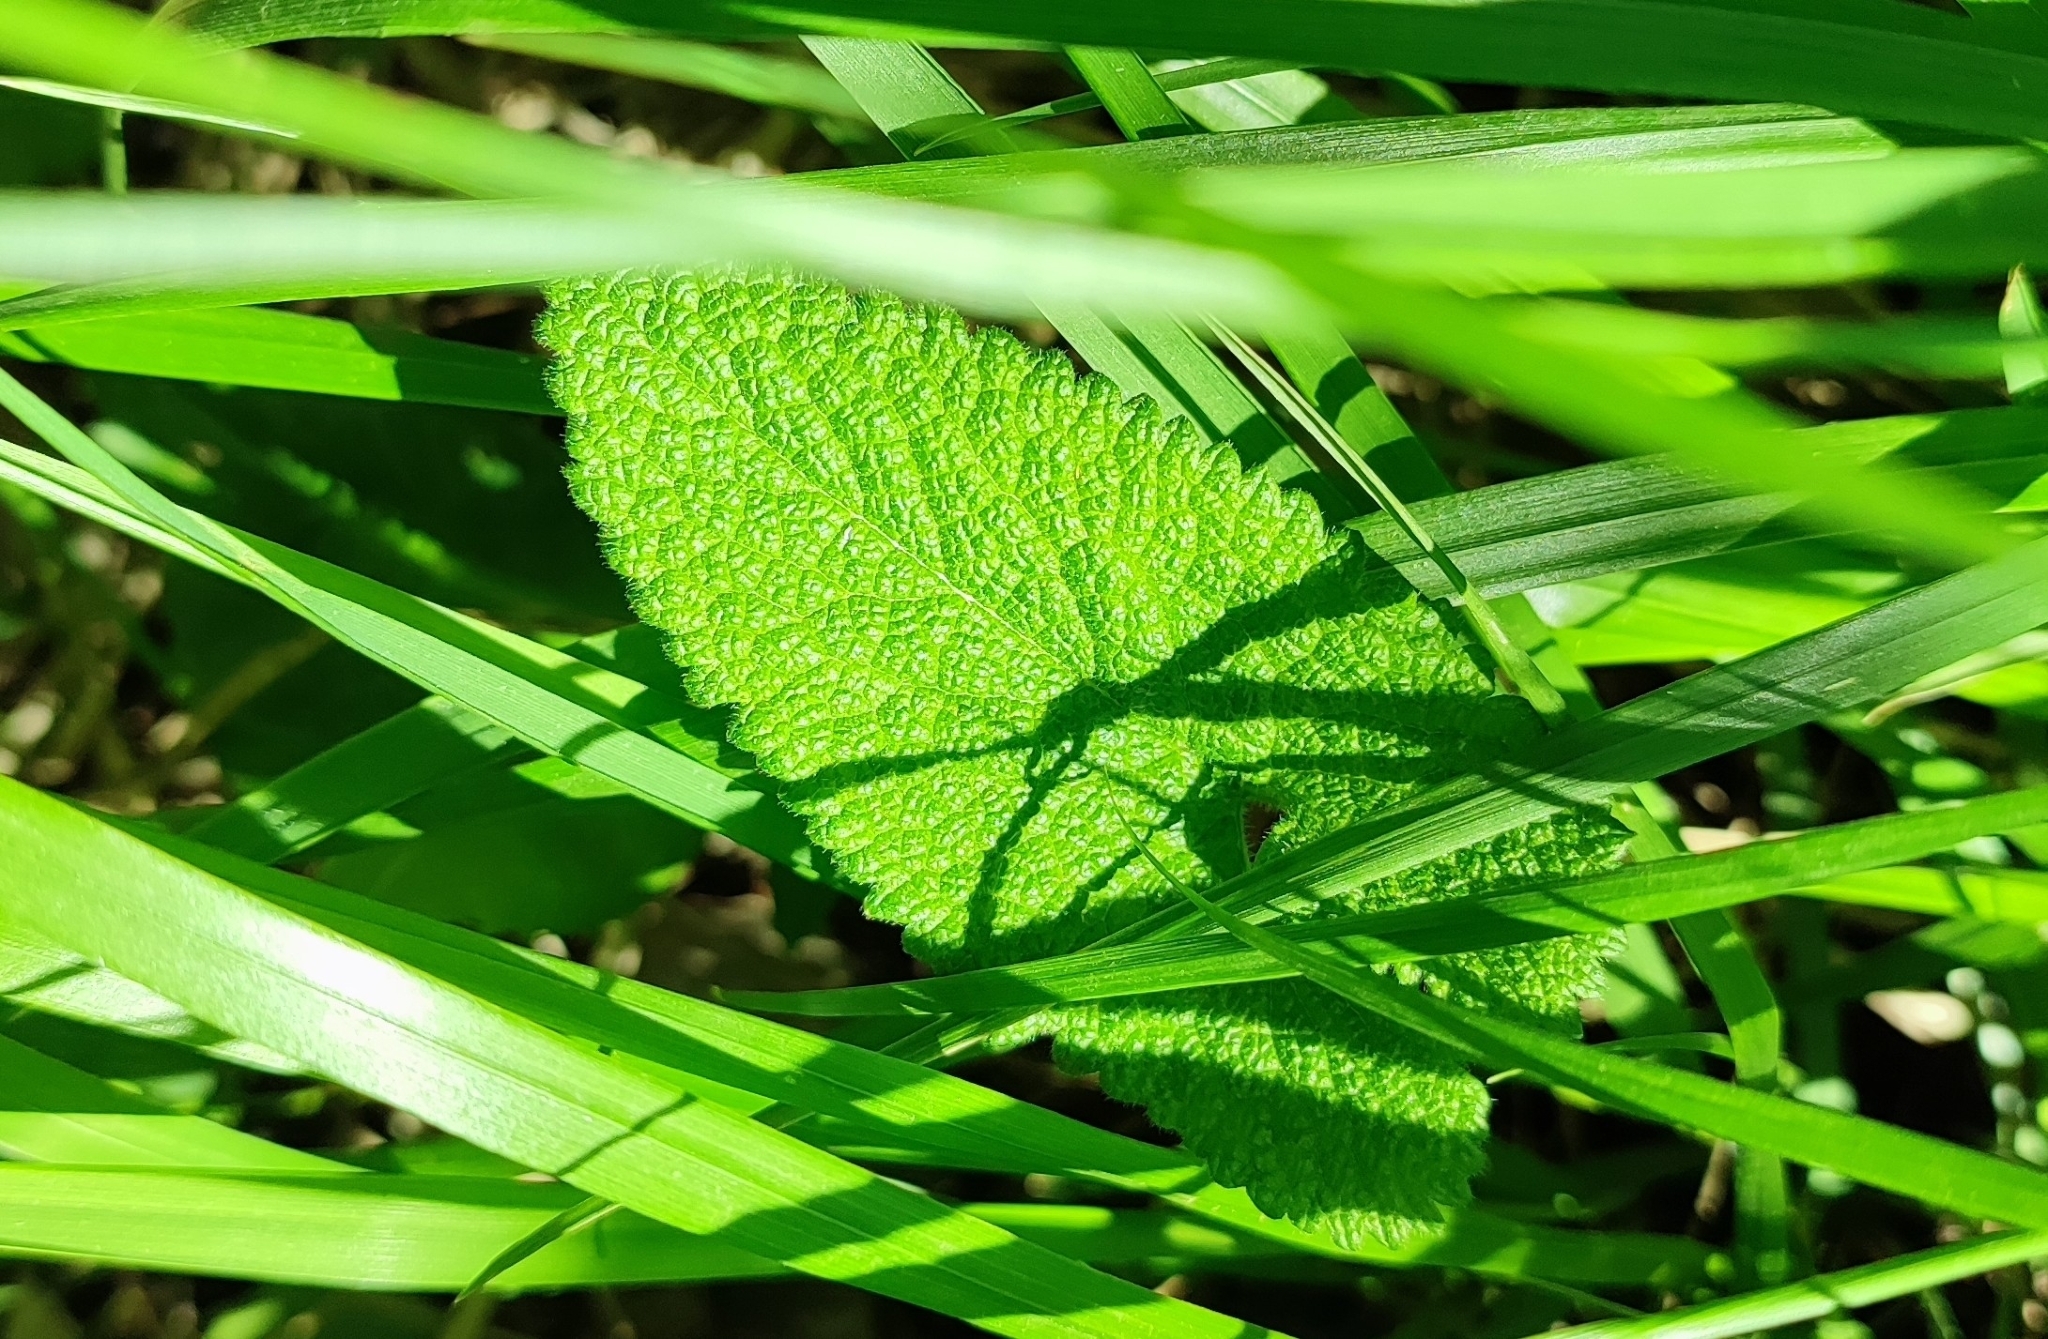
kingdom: Plantae
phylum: Tracheophyta
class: Magnoliopsida
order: Lamiales
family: Lamiaceae
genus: Phlomoides
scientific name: Phlomoides tuberosa
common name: Tuberous jerusalem sage
